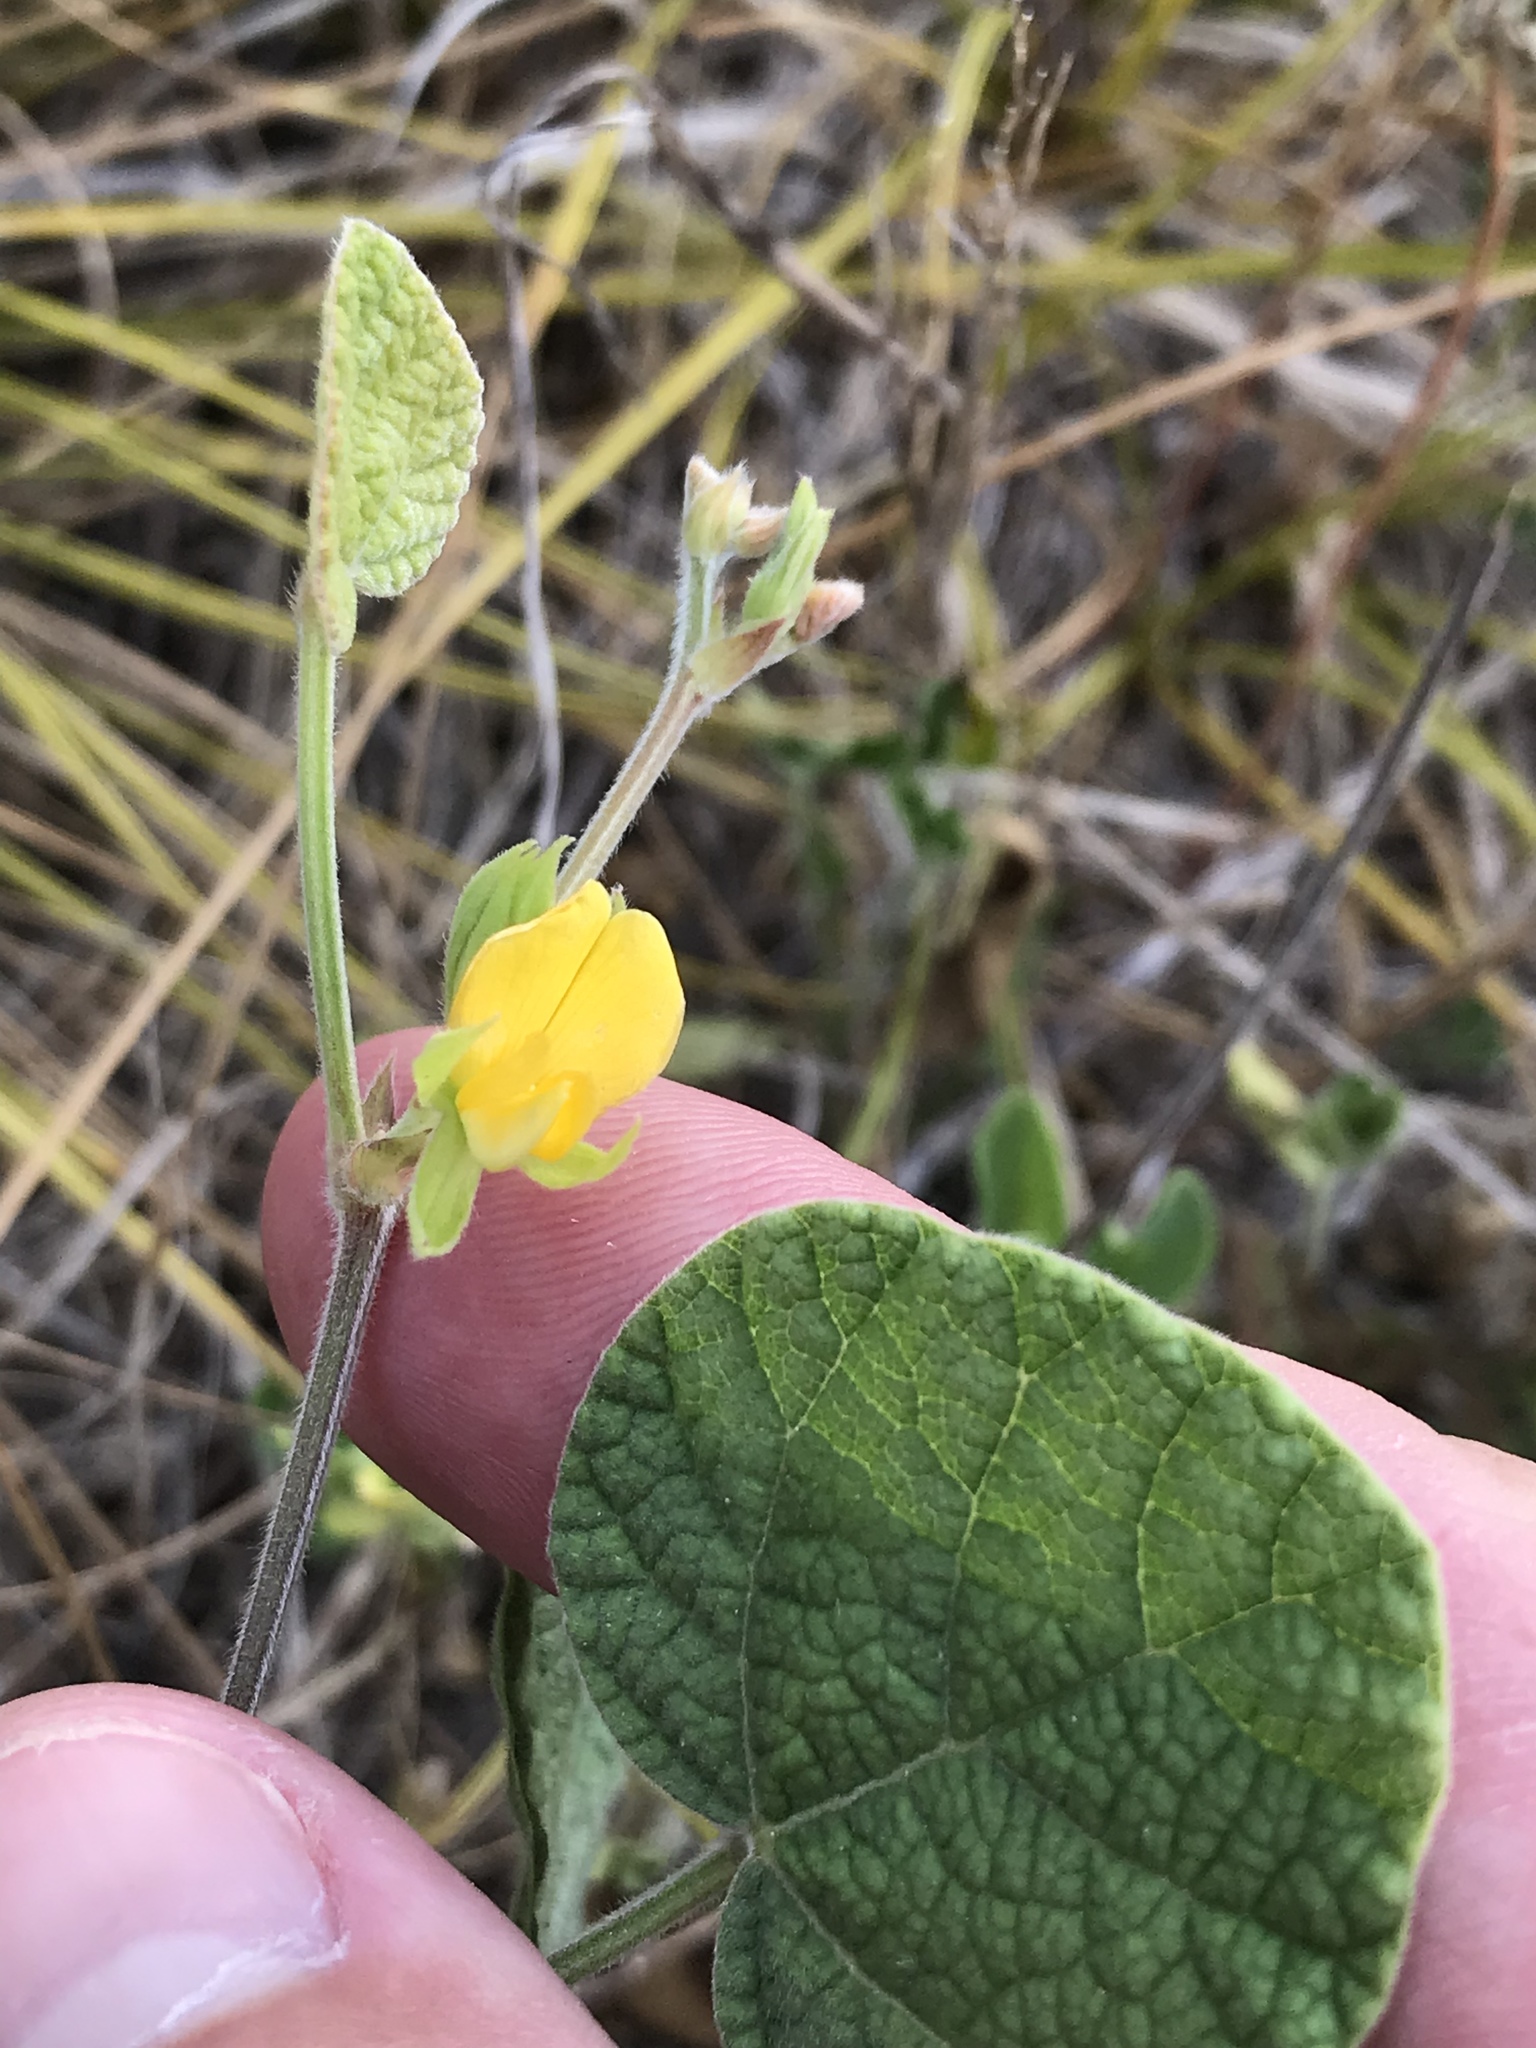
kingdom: Plantae
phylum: Tracheophyta
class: Magnoliopsida
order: Fabales
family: Fabaceae
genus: Rhynchosia
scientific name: Rhynchosia americana
